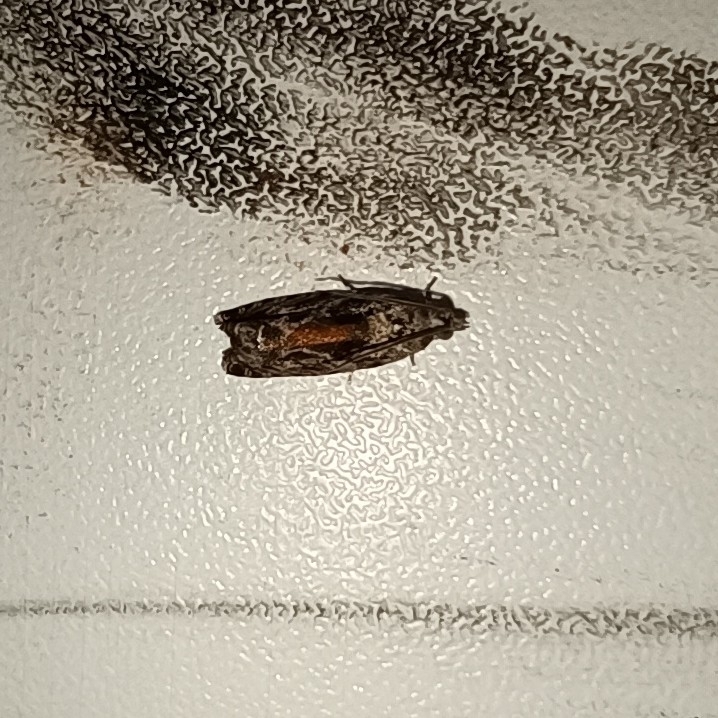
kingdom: Animalia
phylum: Arthropoda
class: Insecta
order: Lepidoptera
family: Tortricidae
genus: Epinotia
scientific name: Epinotia nisella
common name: Grey poplar bell
